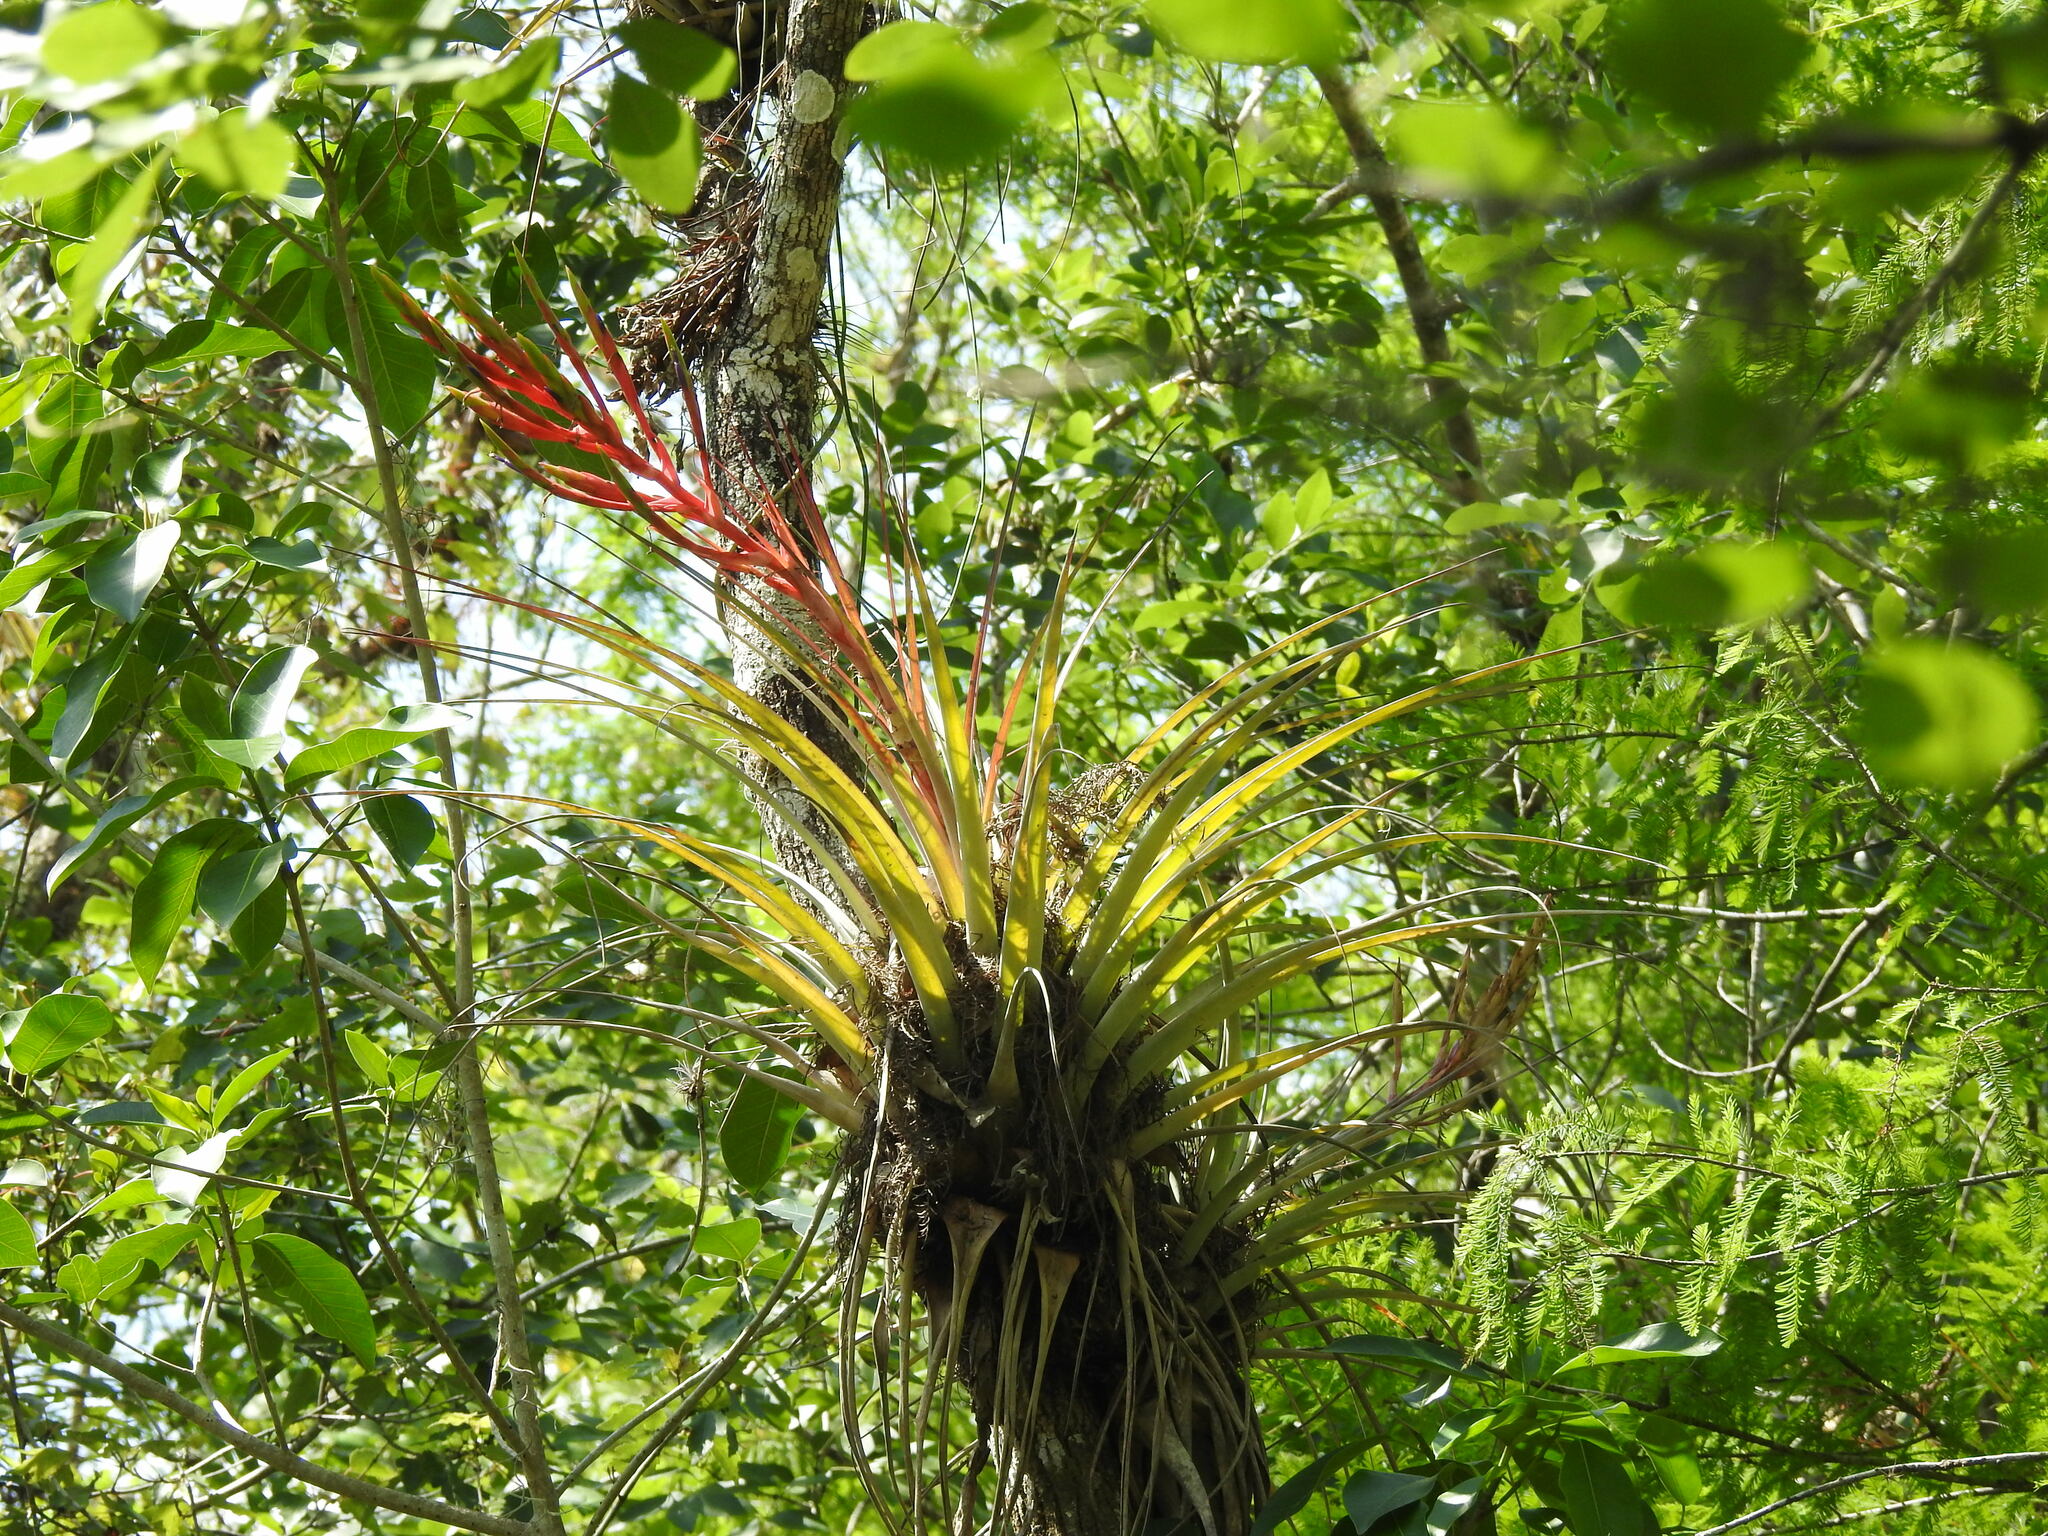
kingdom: Plantae
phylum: Tracheophyta
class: Liliopsida
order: Poales
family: Bromeliaceae
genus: Tillandsia
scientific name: Tillandsia fasciculata
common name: Giant airplant
